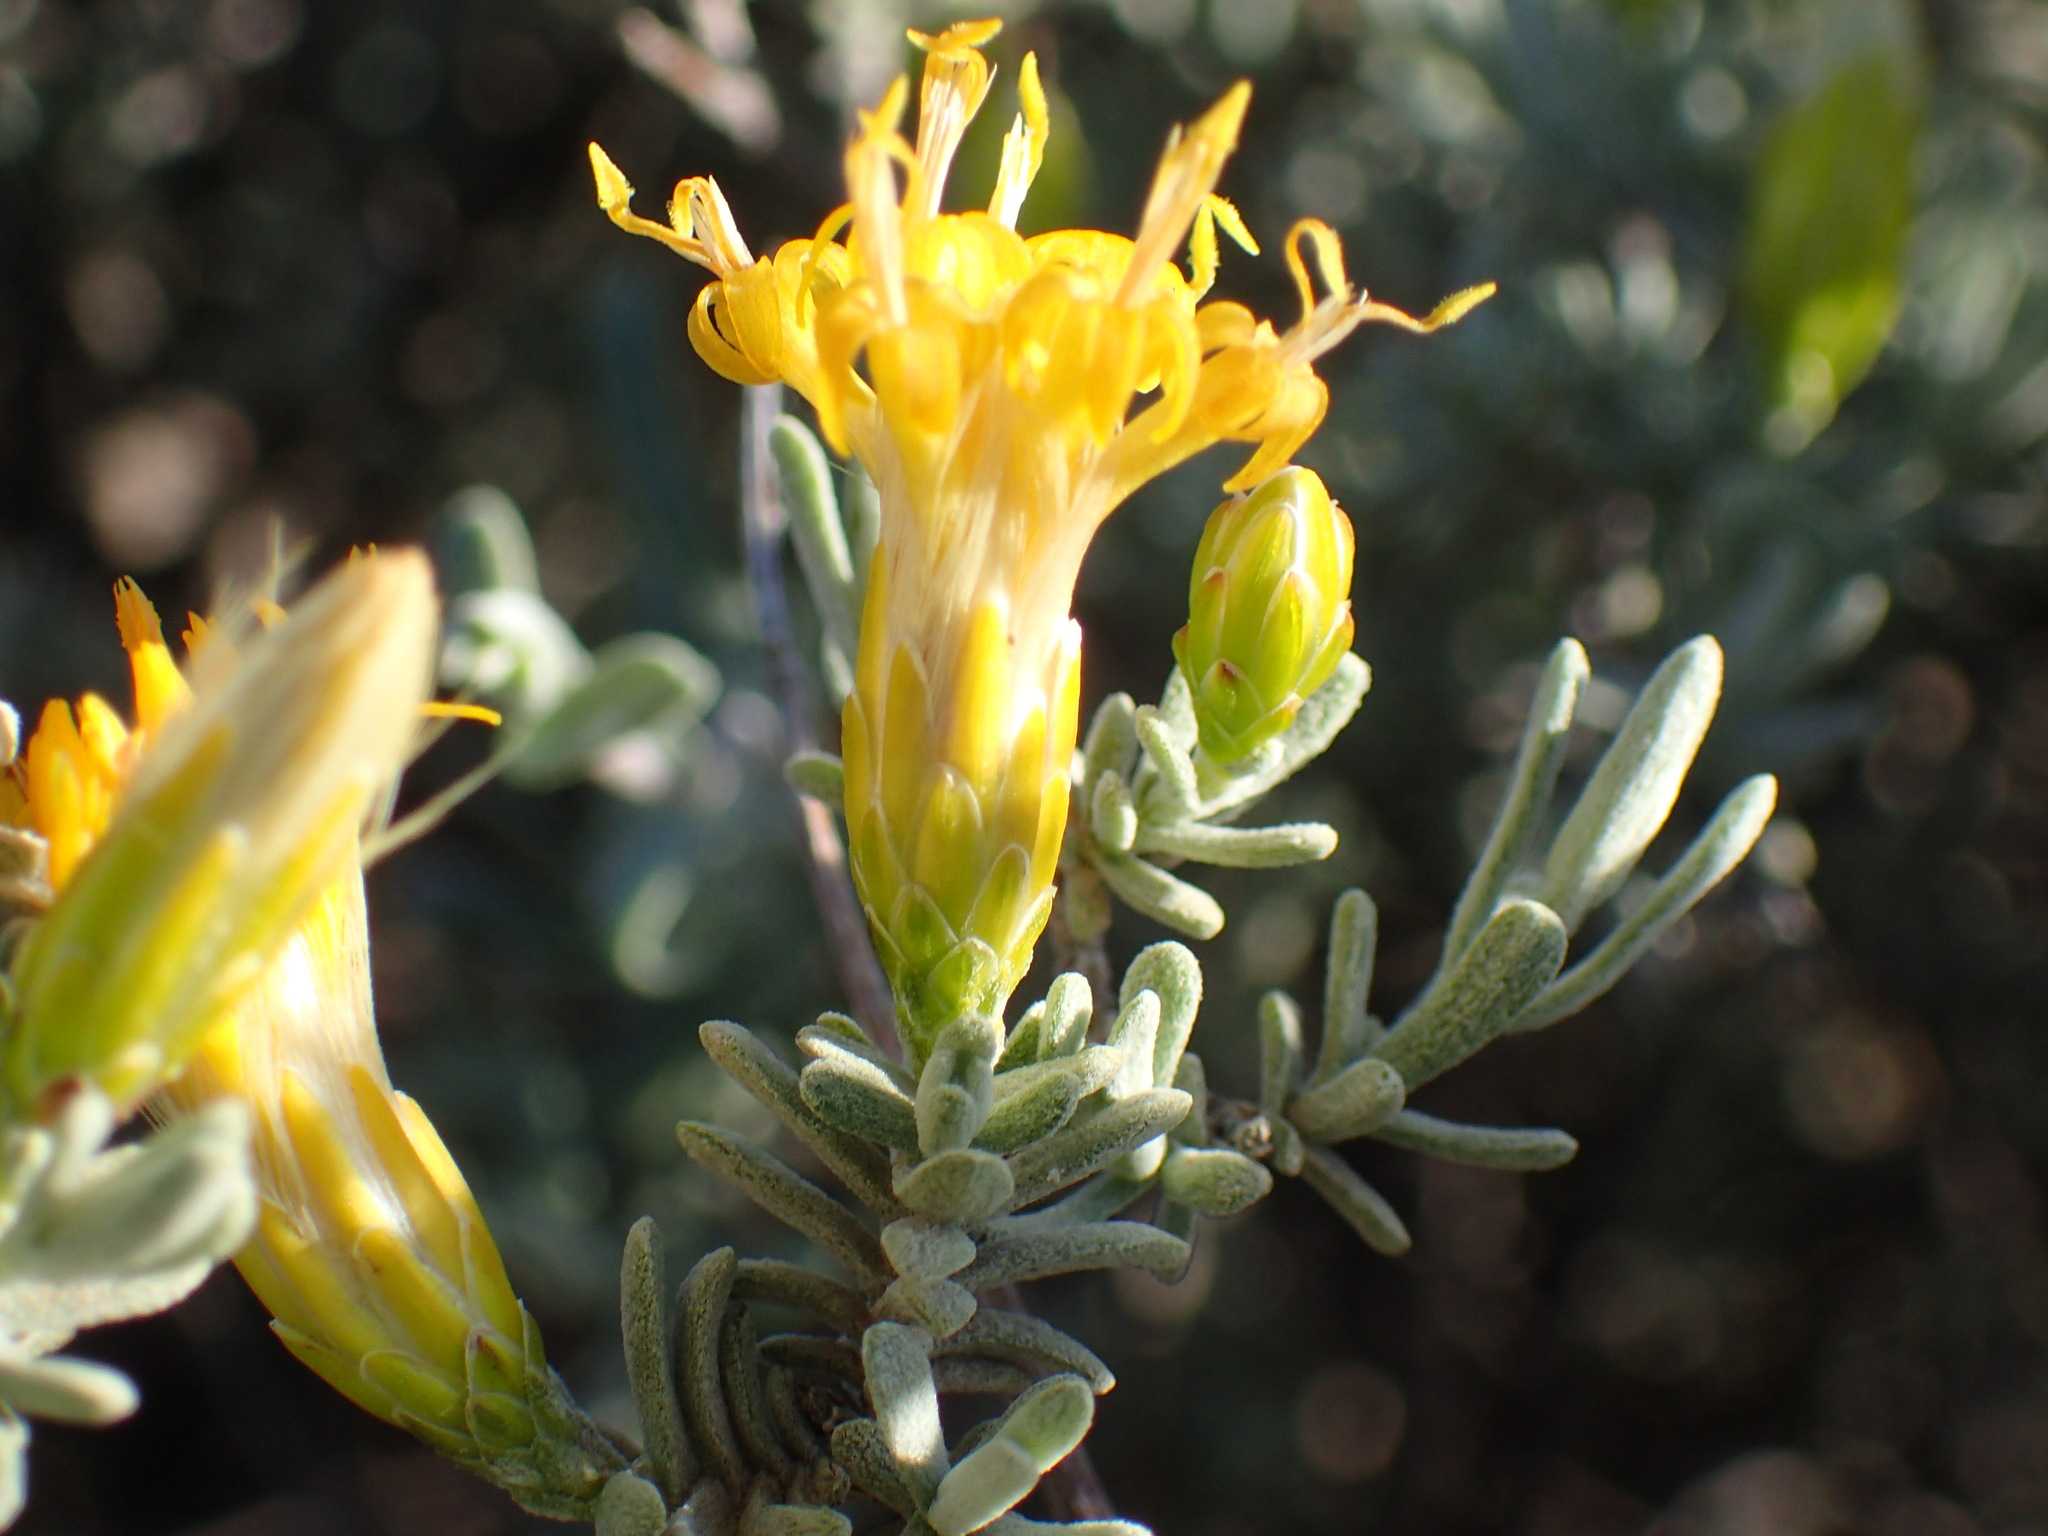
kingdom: Plantae
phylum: Tracheophyta
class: Magnoliopsida
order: Asterales
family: Asteraceae
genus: Pteronia
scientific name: Pteronia incana
